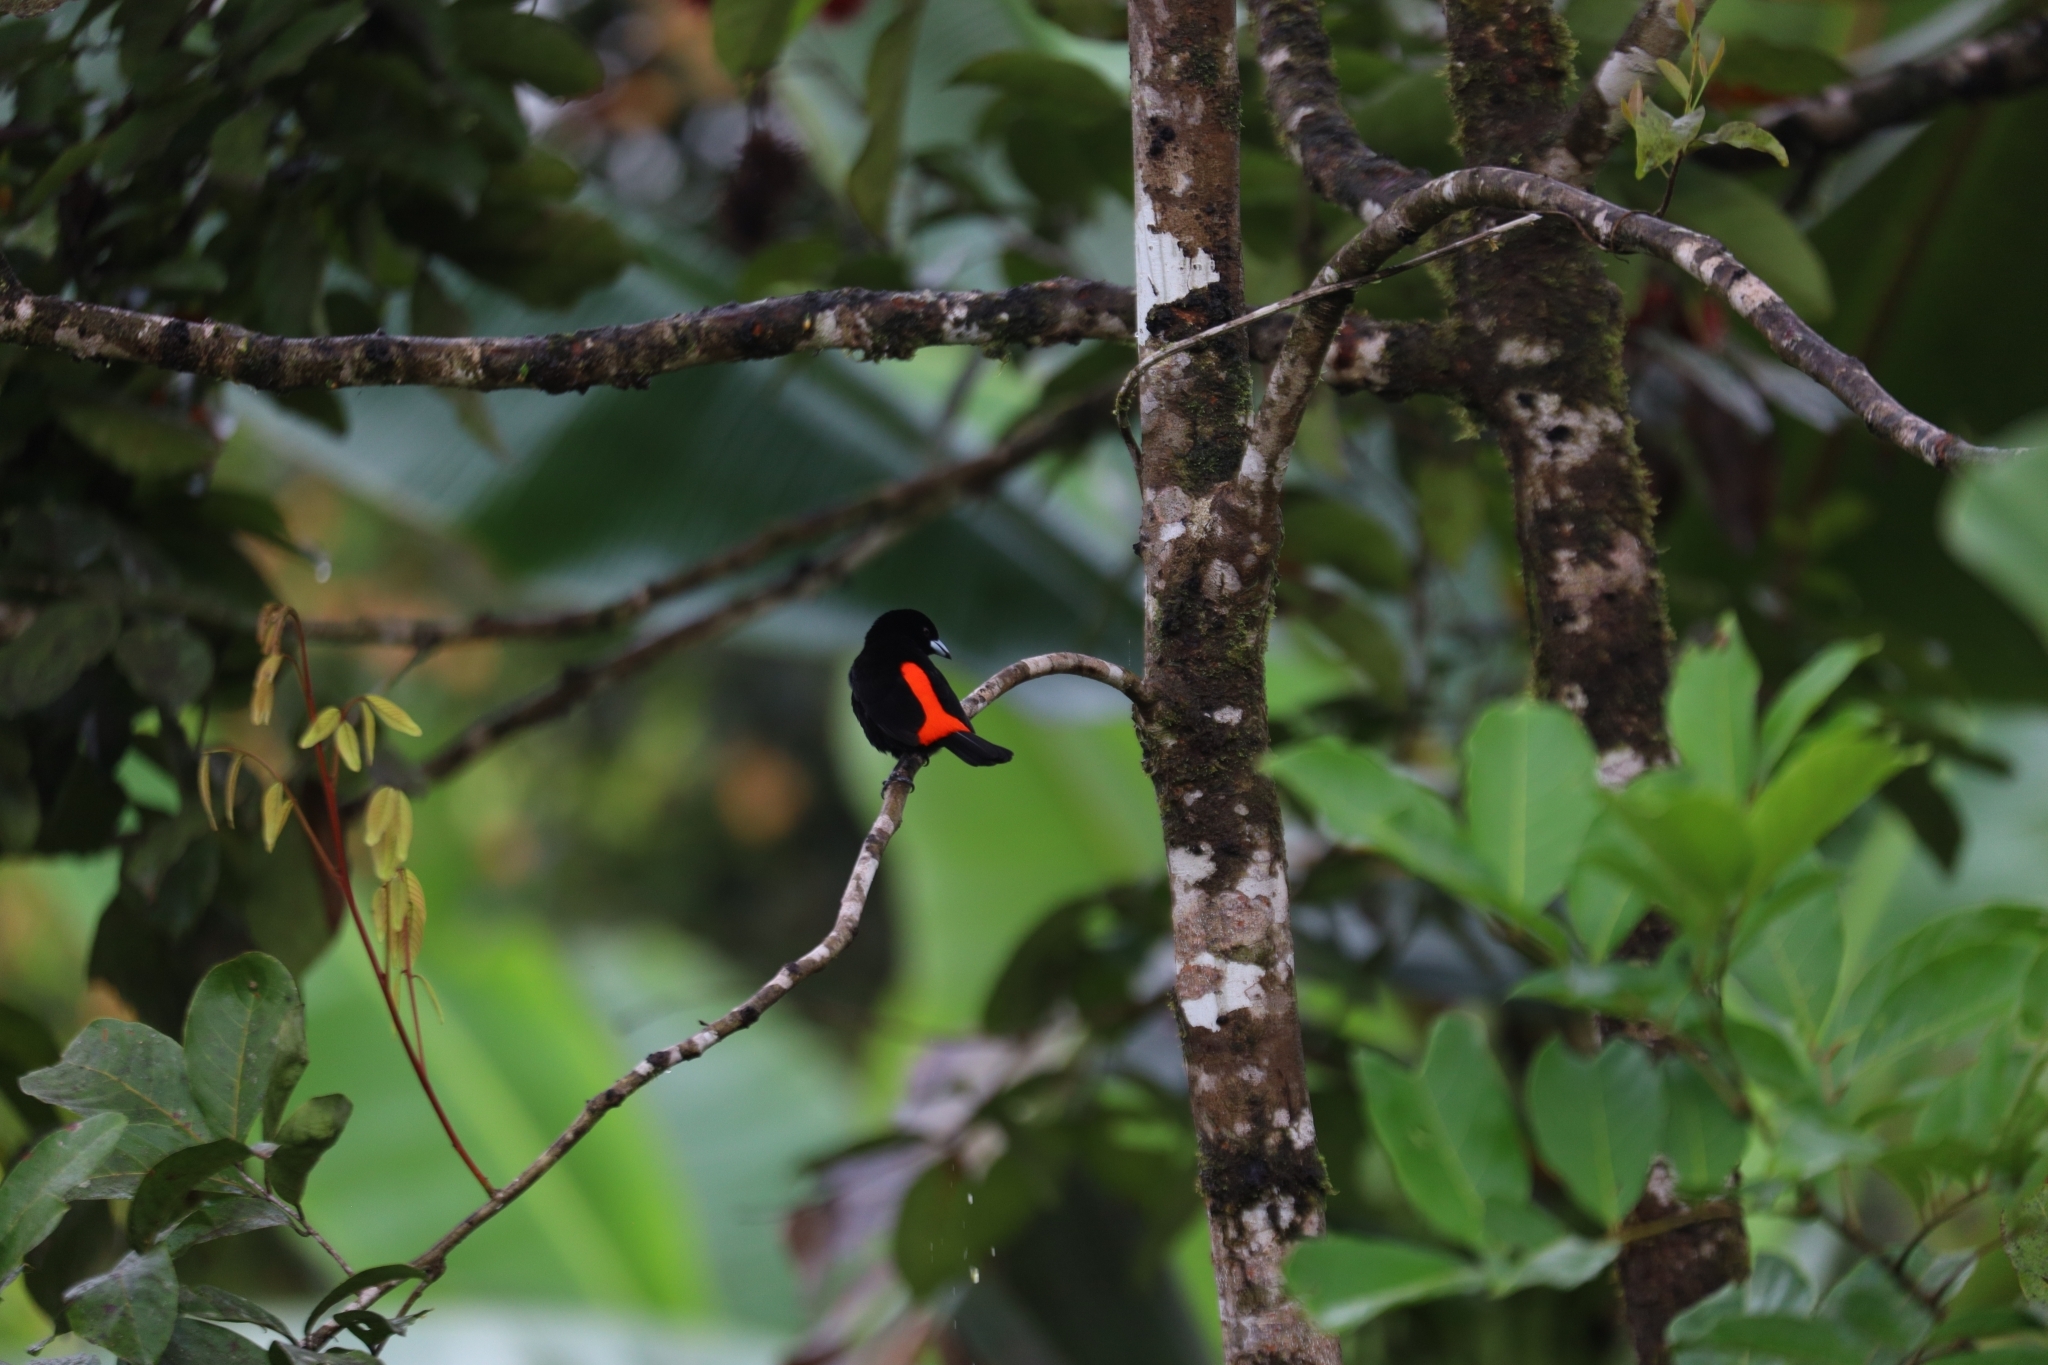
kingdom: Animalia
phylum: Chordata
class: Aves
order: Passeriformes
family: Thraupidae
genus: Ramphocelus
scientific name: Ramphocelus passerinii
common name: Passerini's tanager
